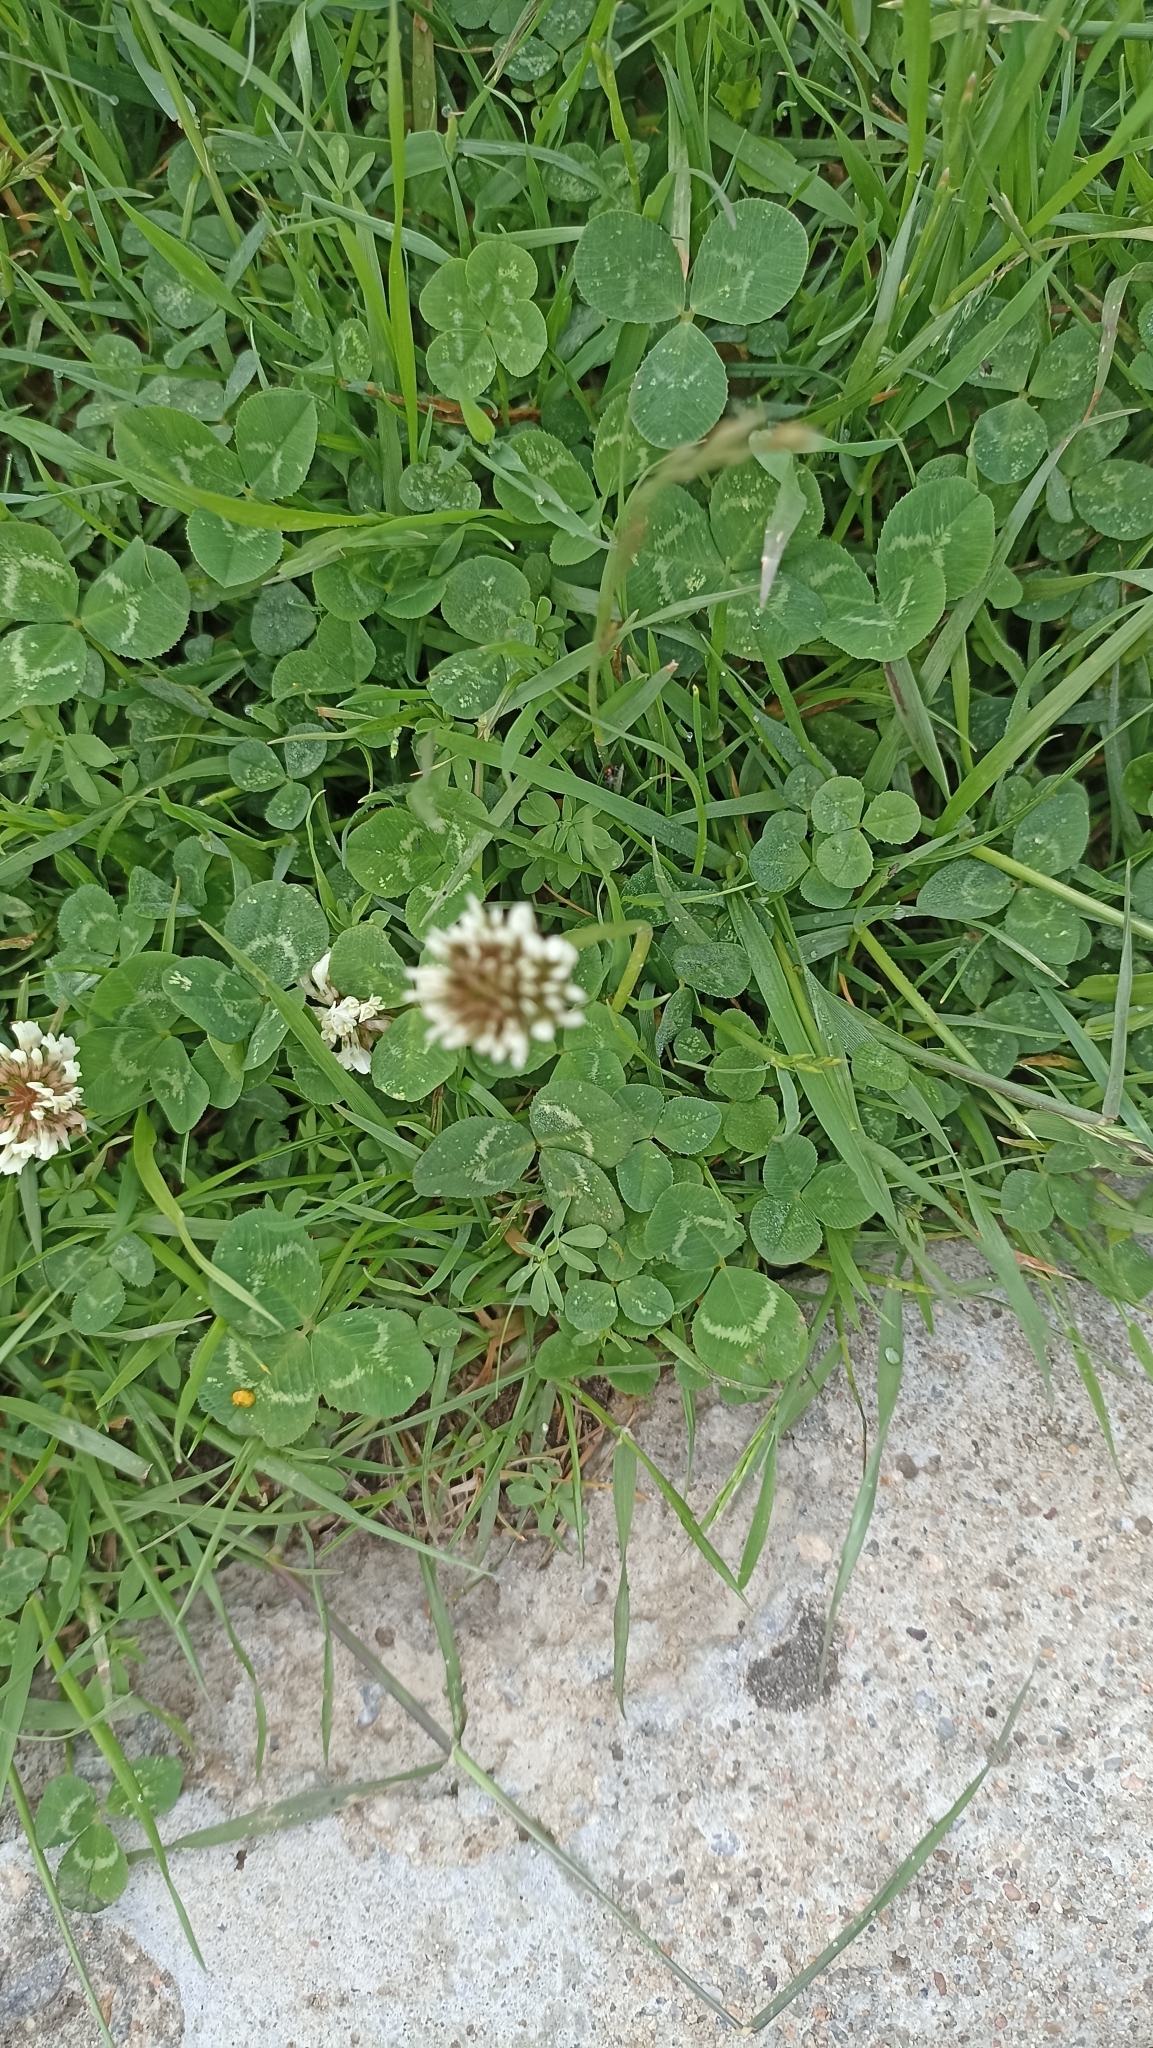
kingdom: Plantae
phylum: Tracheophyta
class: Magnoliopsida
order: Fabales
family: Fabaceae
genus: Trifolium
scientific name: Trifolium repens
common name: White clover
